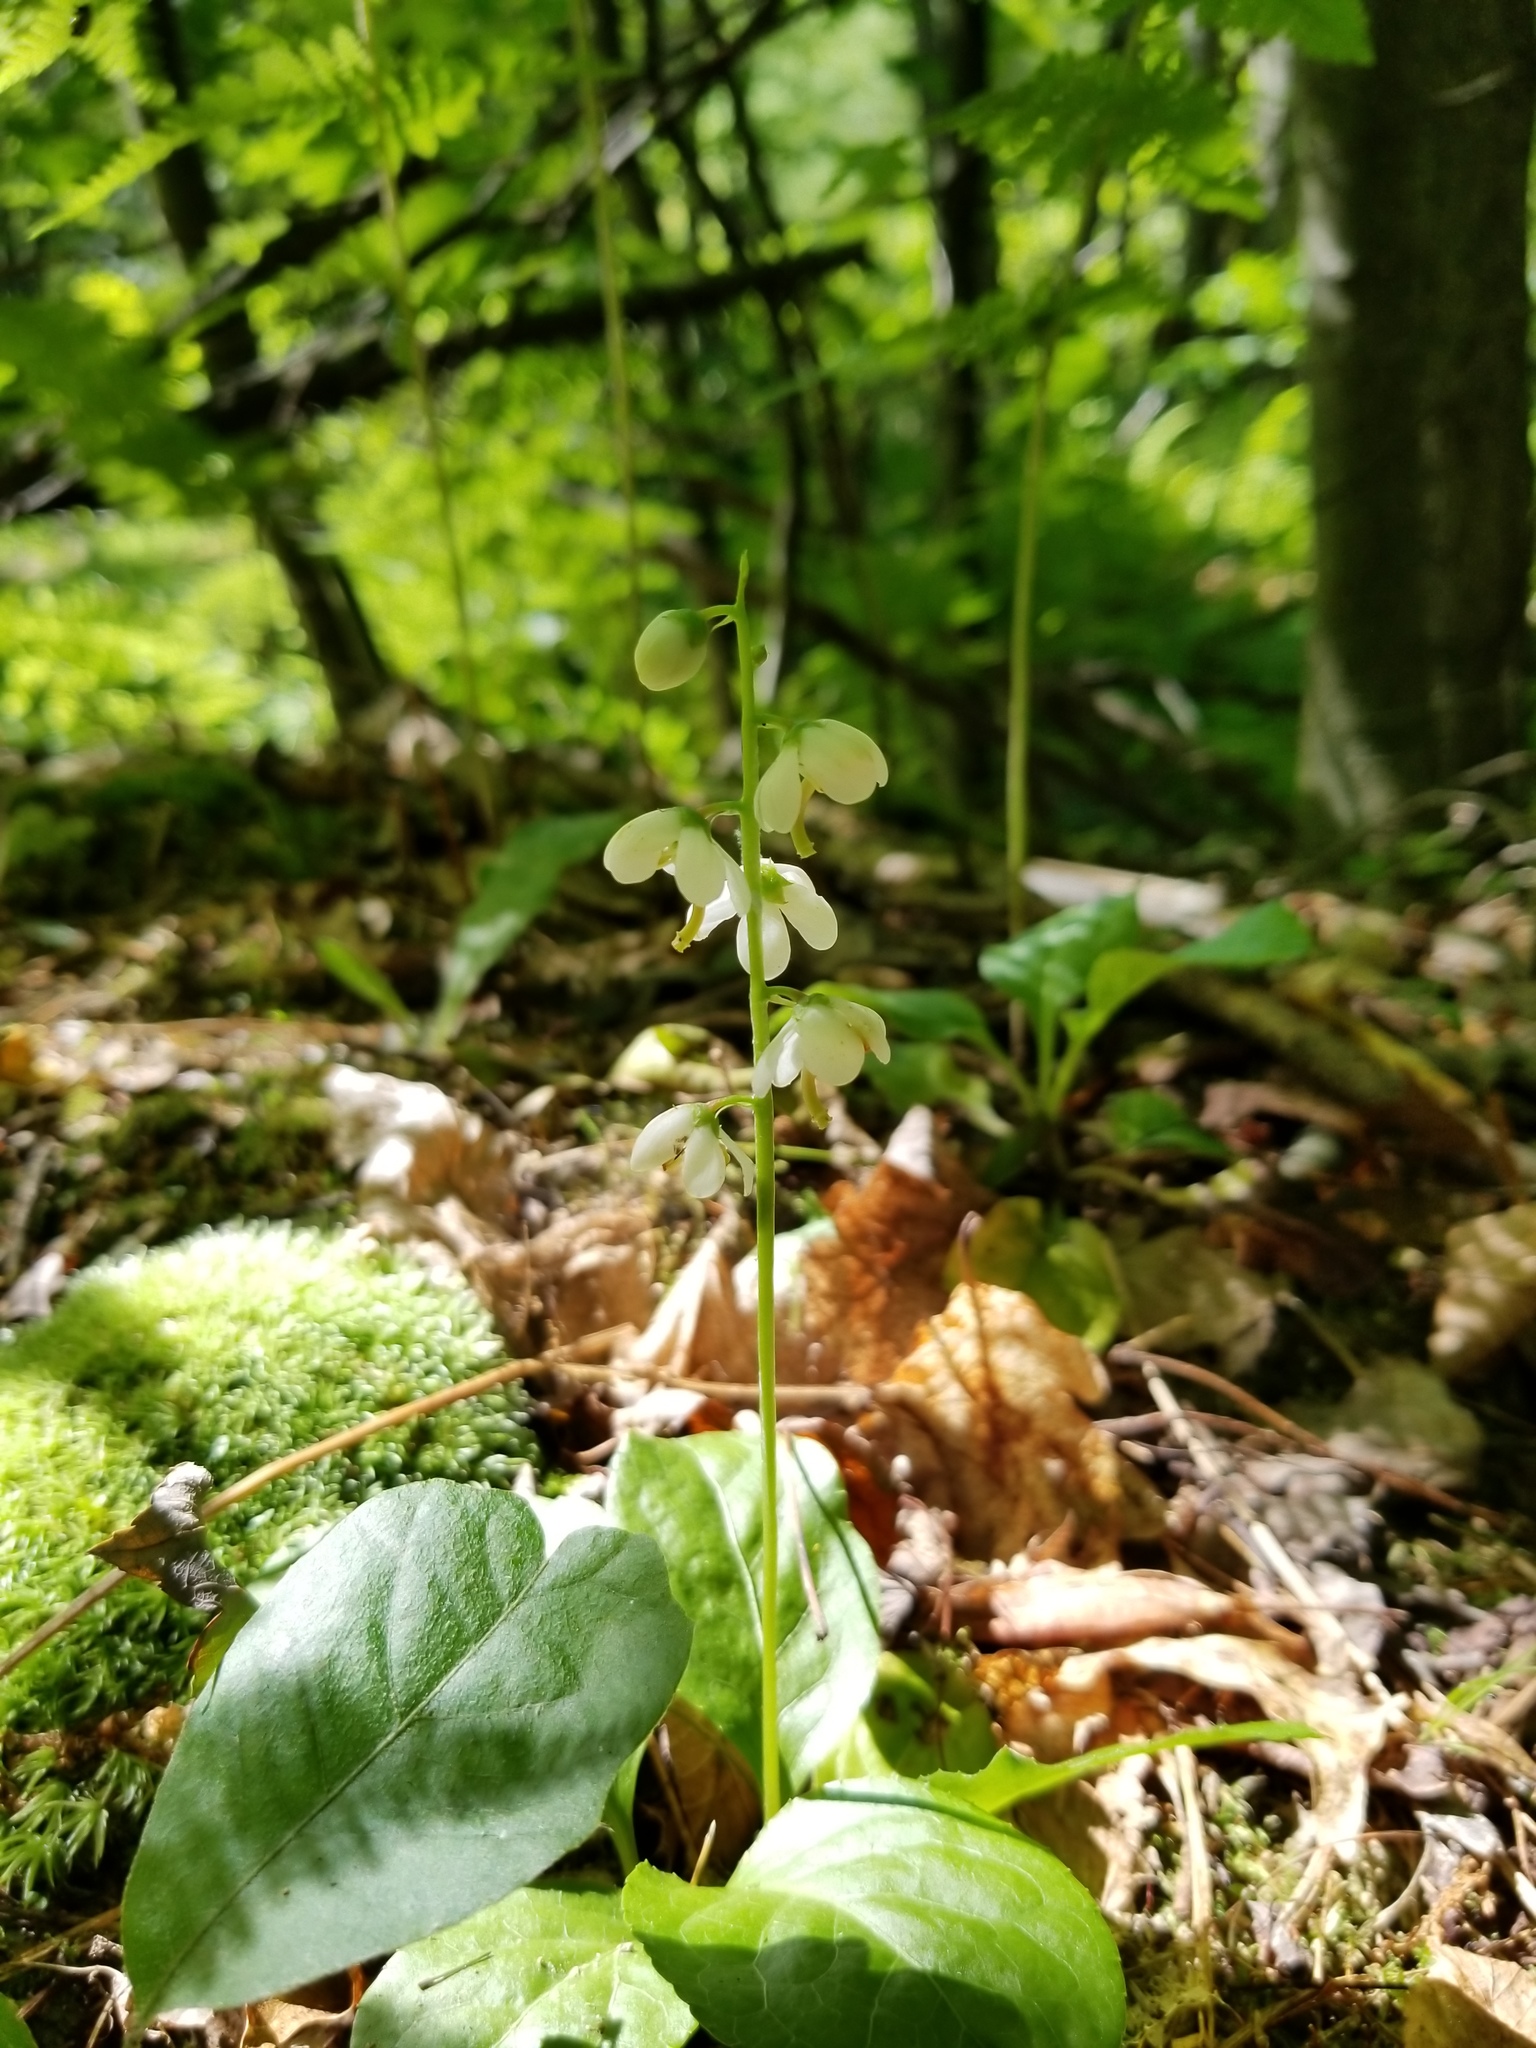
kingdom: Plantae
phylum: Tracheophyta
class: Magnoliopsida
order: Ericales
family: Ericaceae
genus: Pyrola
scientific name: Pyrola elliptica
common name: Shinleaf
